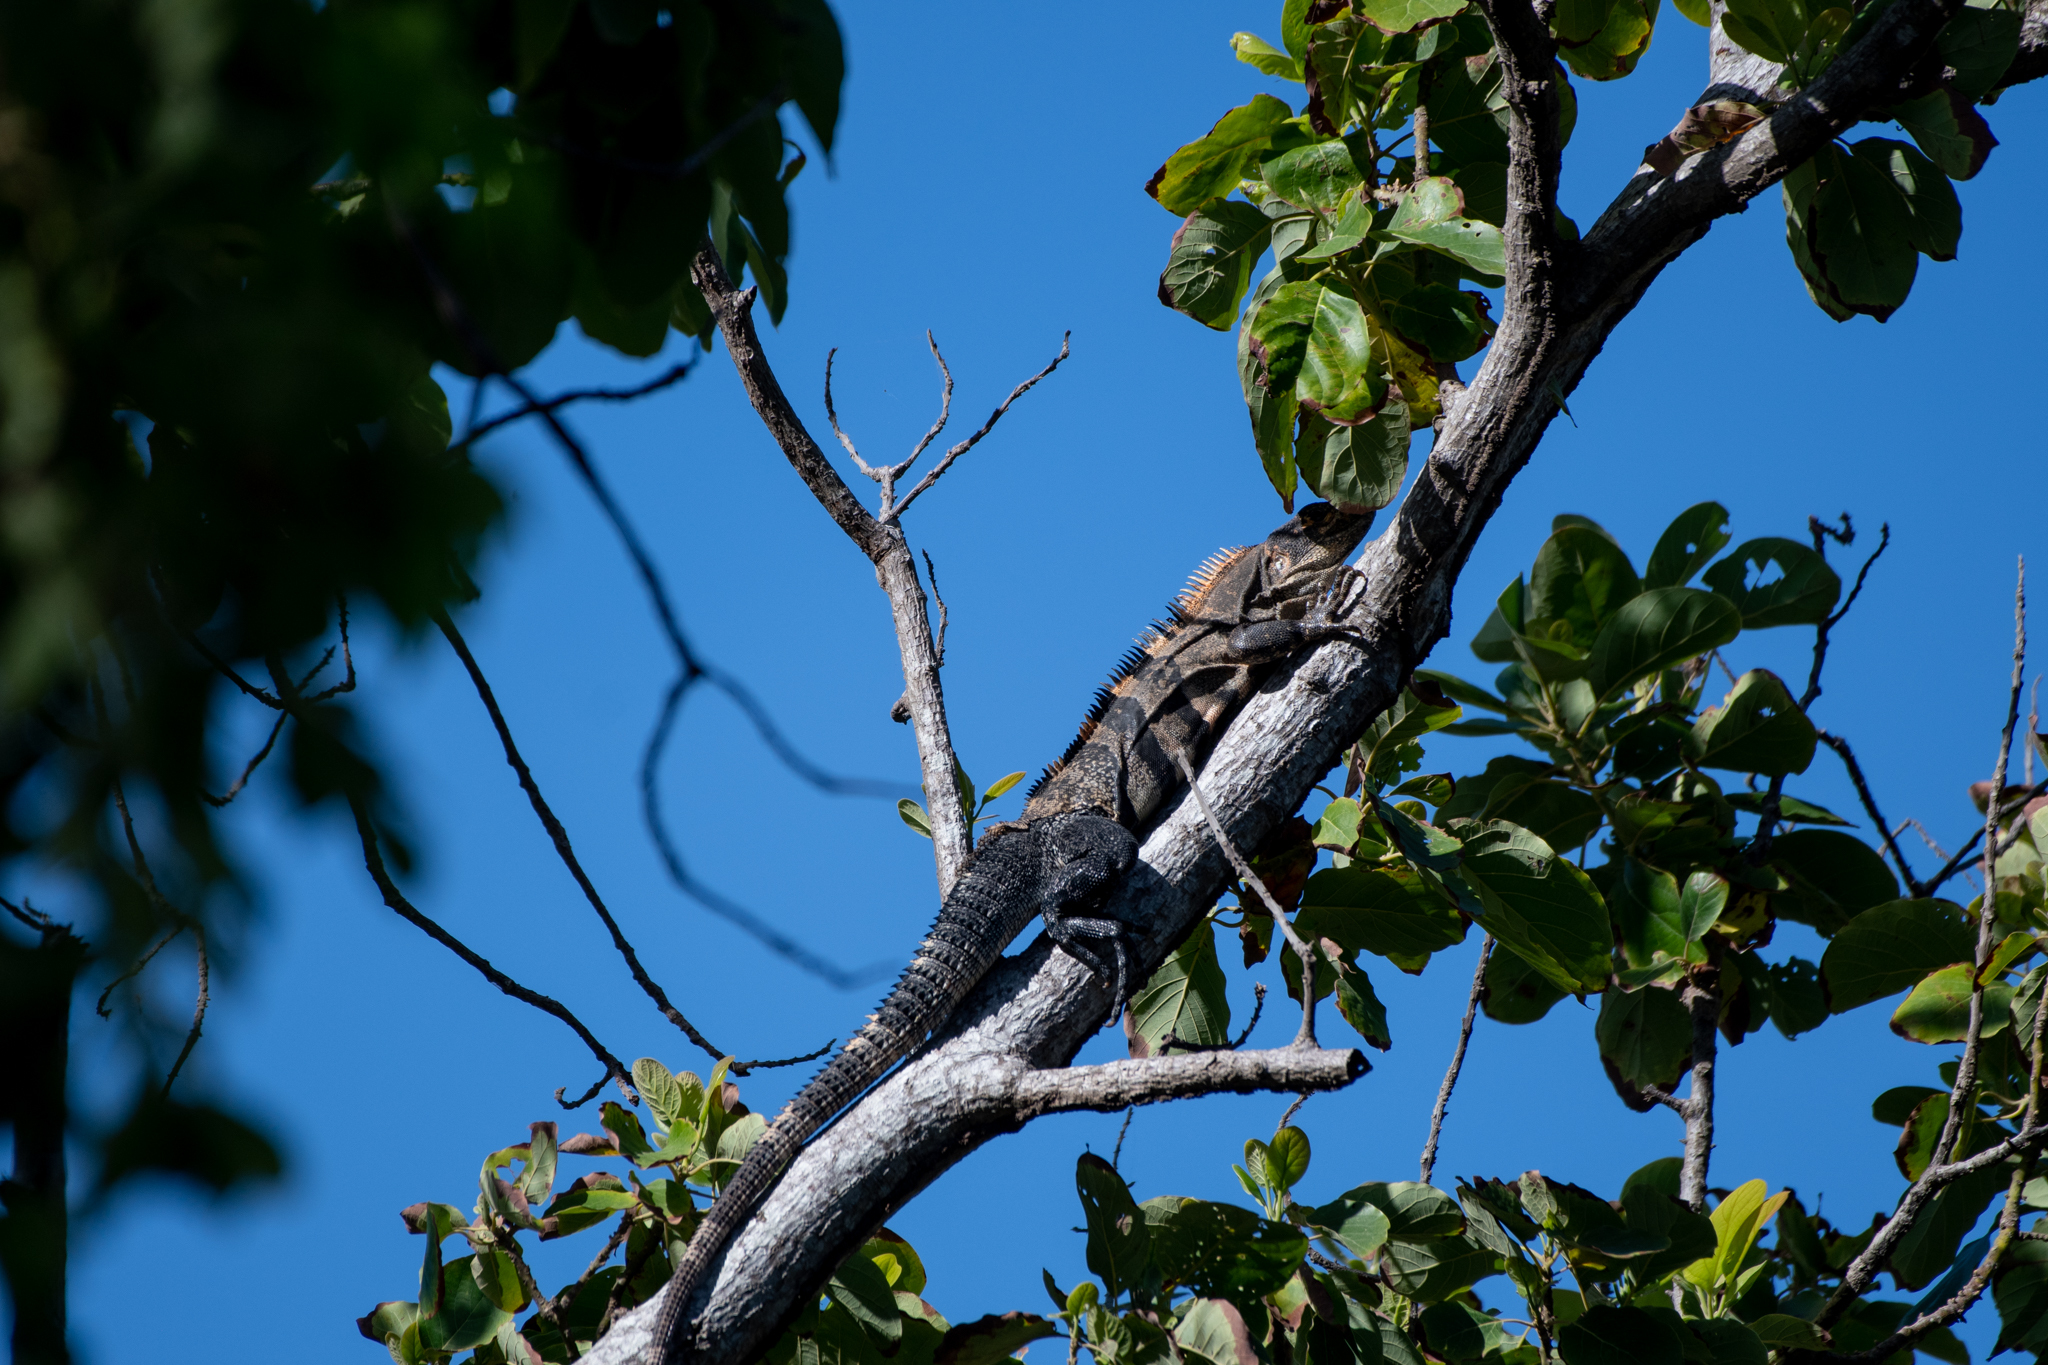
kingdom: Animalia
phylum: Chordata
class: Squamata
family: Iguanidae
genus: Ctenosaura
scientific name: Ctenosaura similis
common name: Black spiny-tailed iguana
